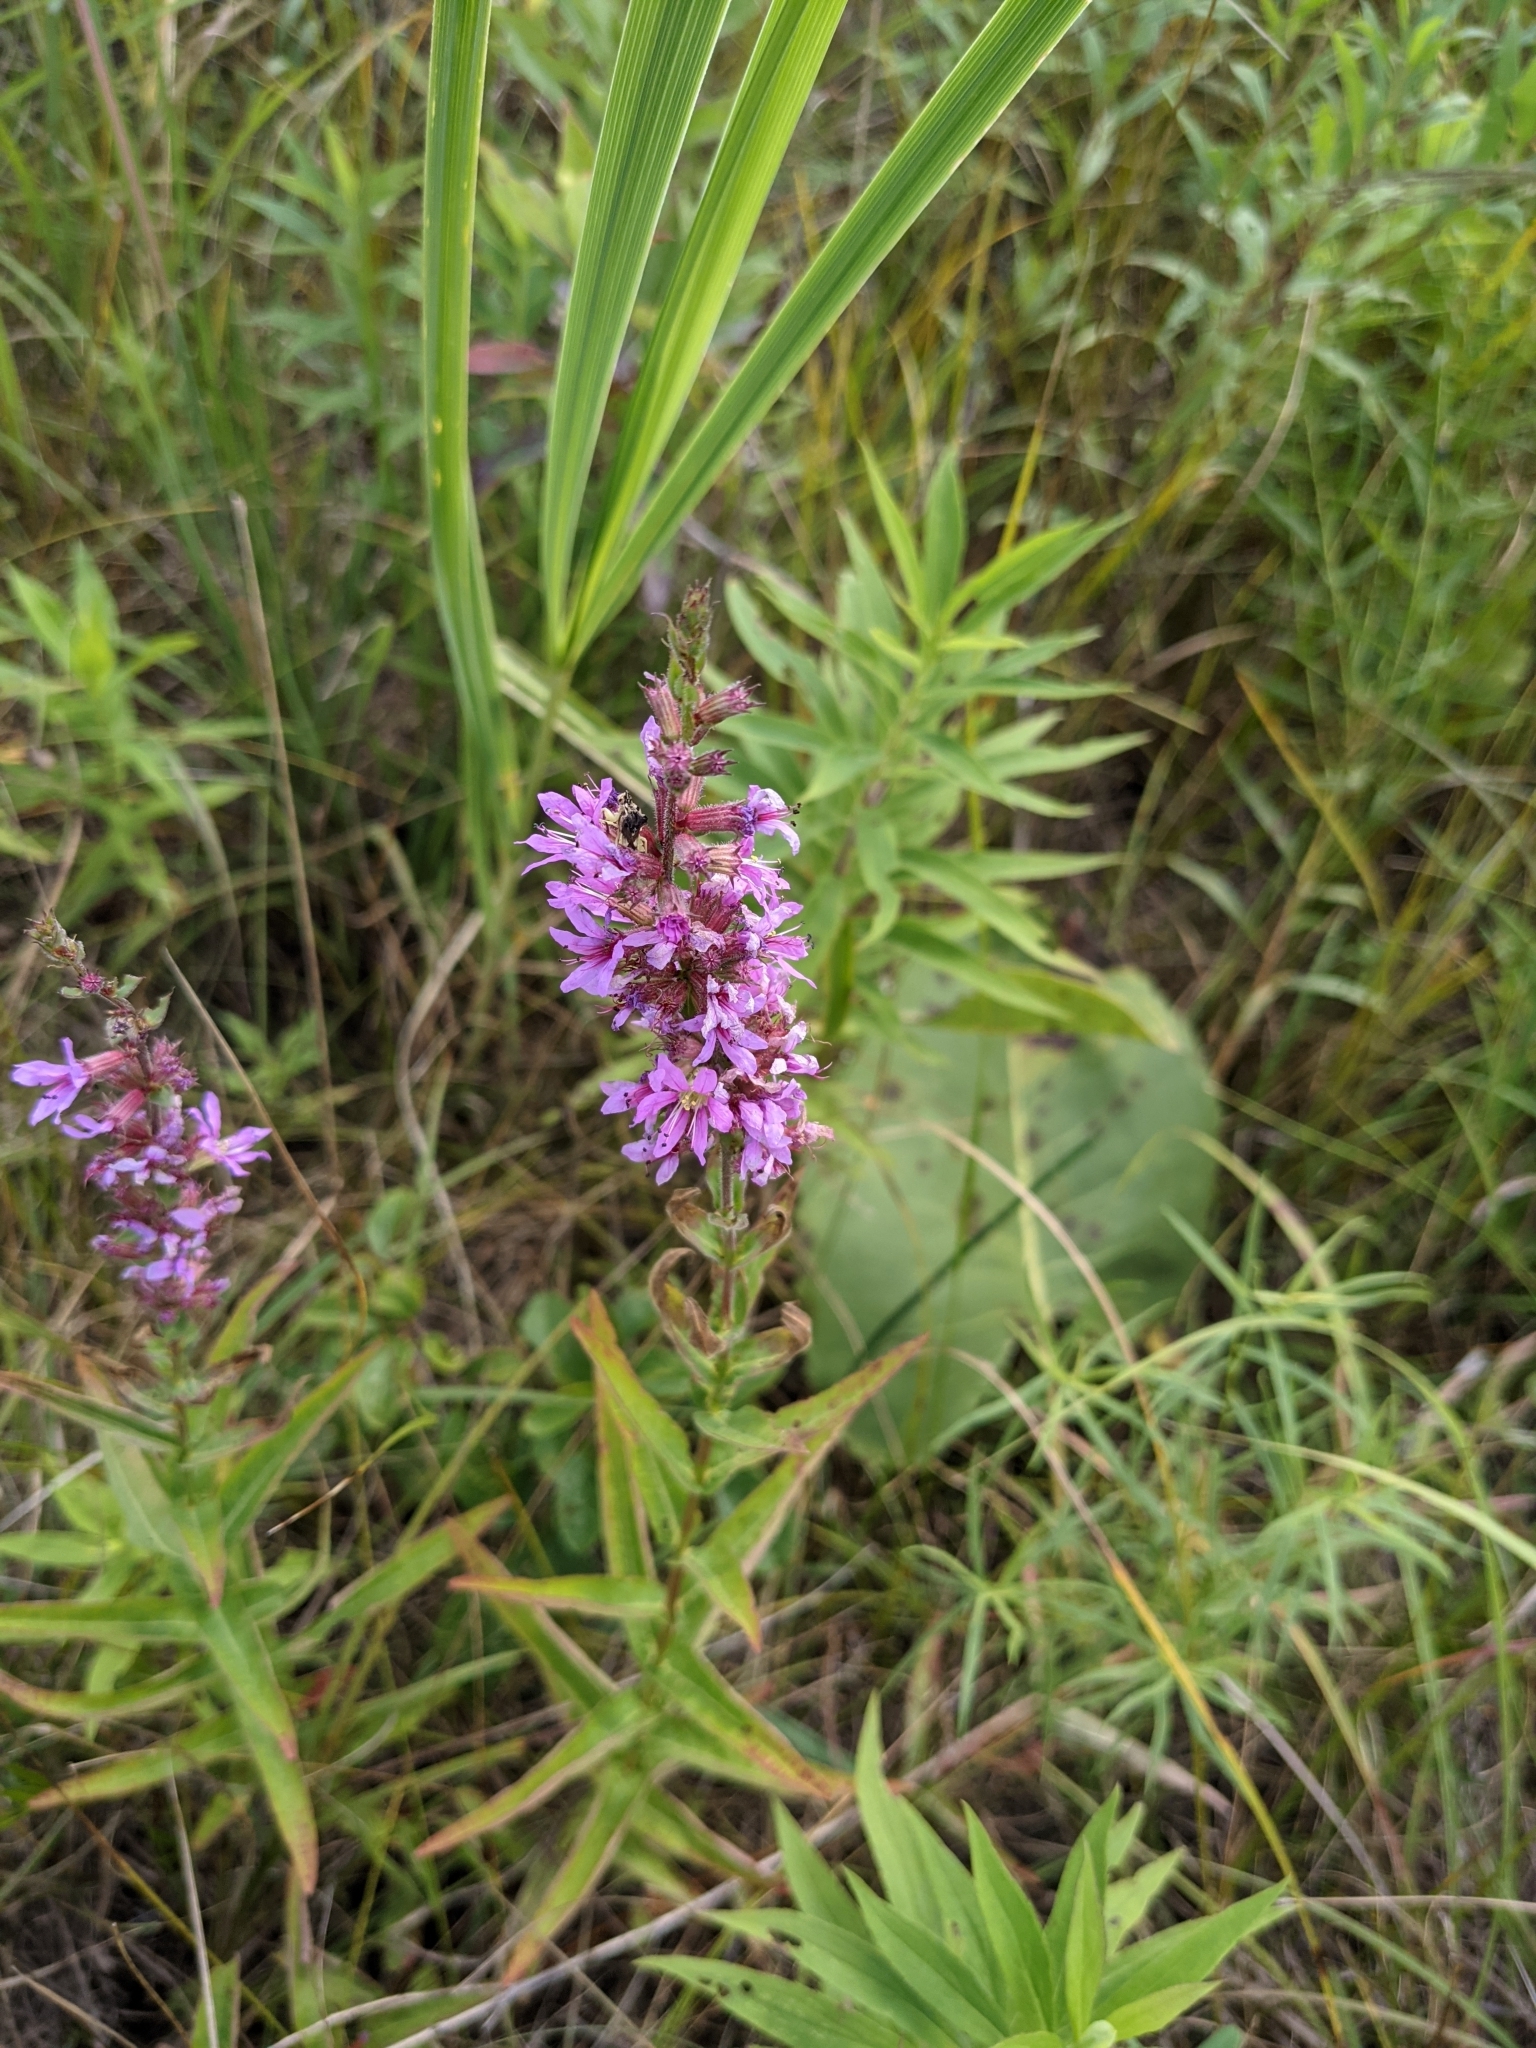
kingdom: Plantae
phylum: Tracheophyta
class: Magnoliopsida
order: Myrtales
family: Lythraceae
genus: Lythrum
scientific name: Lythrum salicaria
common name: Purple loosestrife
